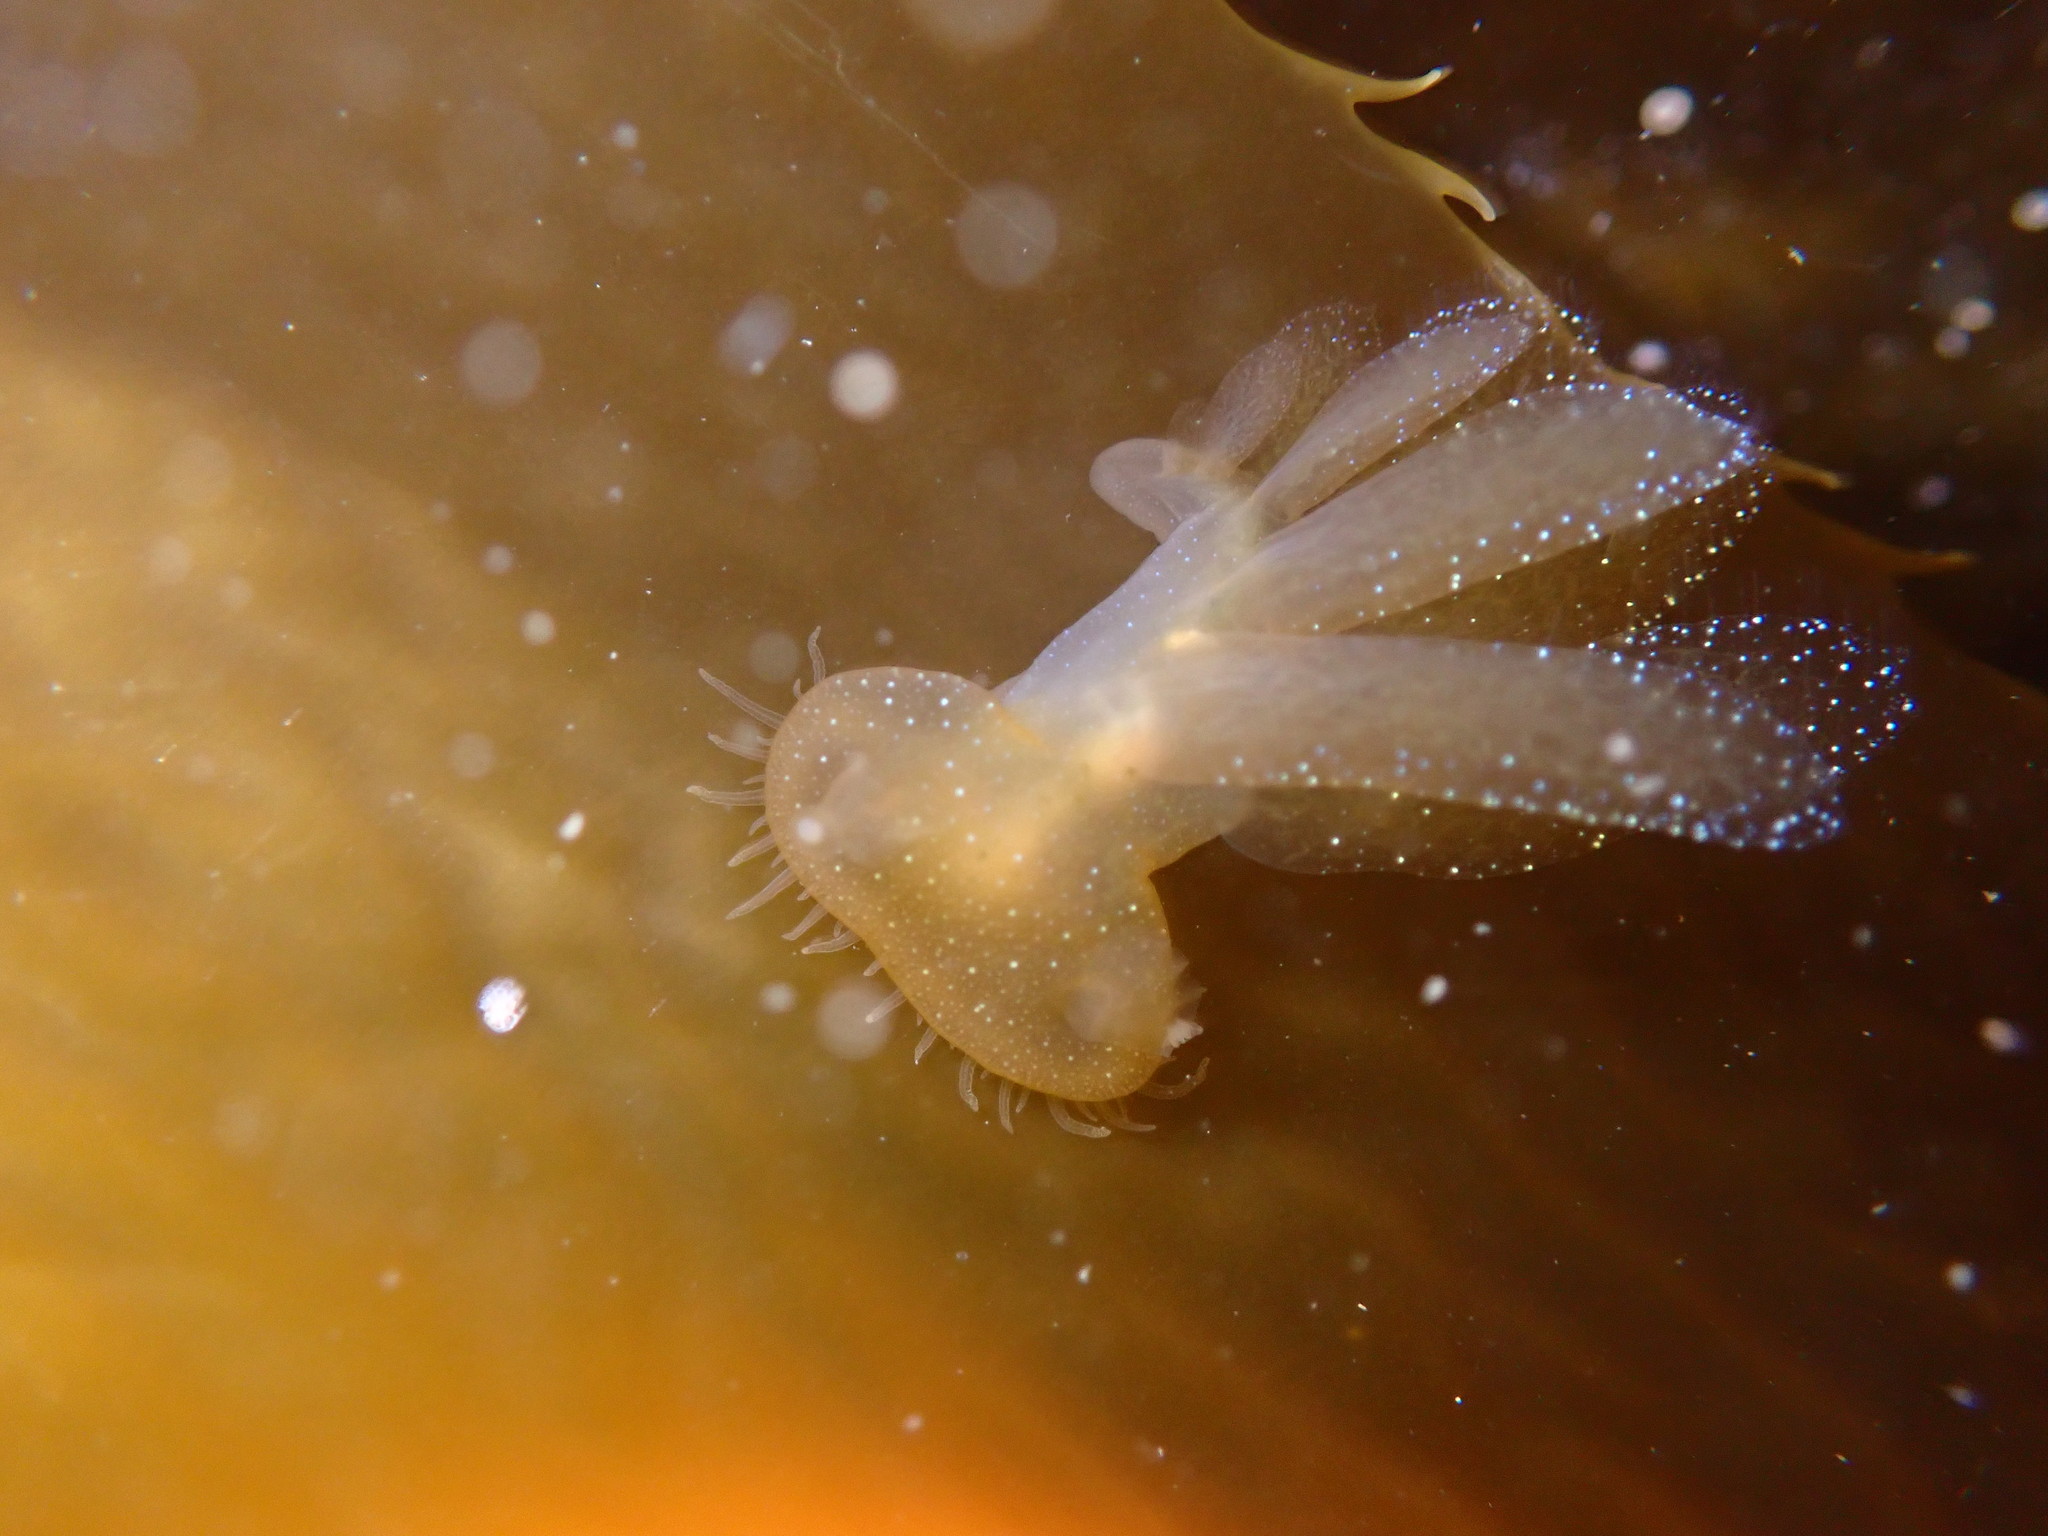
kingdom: Animalia
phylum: Mollusca
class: Gastropoda
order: Nudibranchia
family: Tethydidae
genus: Melibe
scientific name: Melibe leonina
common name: Lion nudibranch
